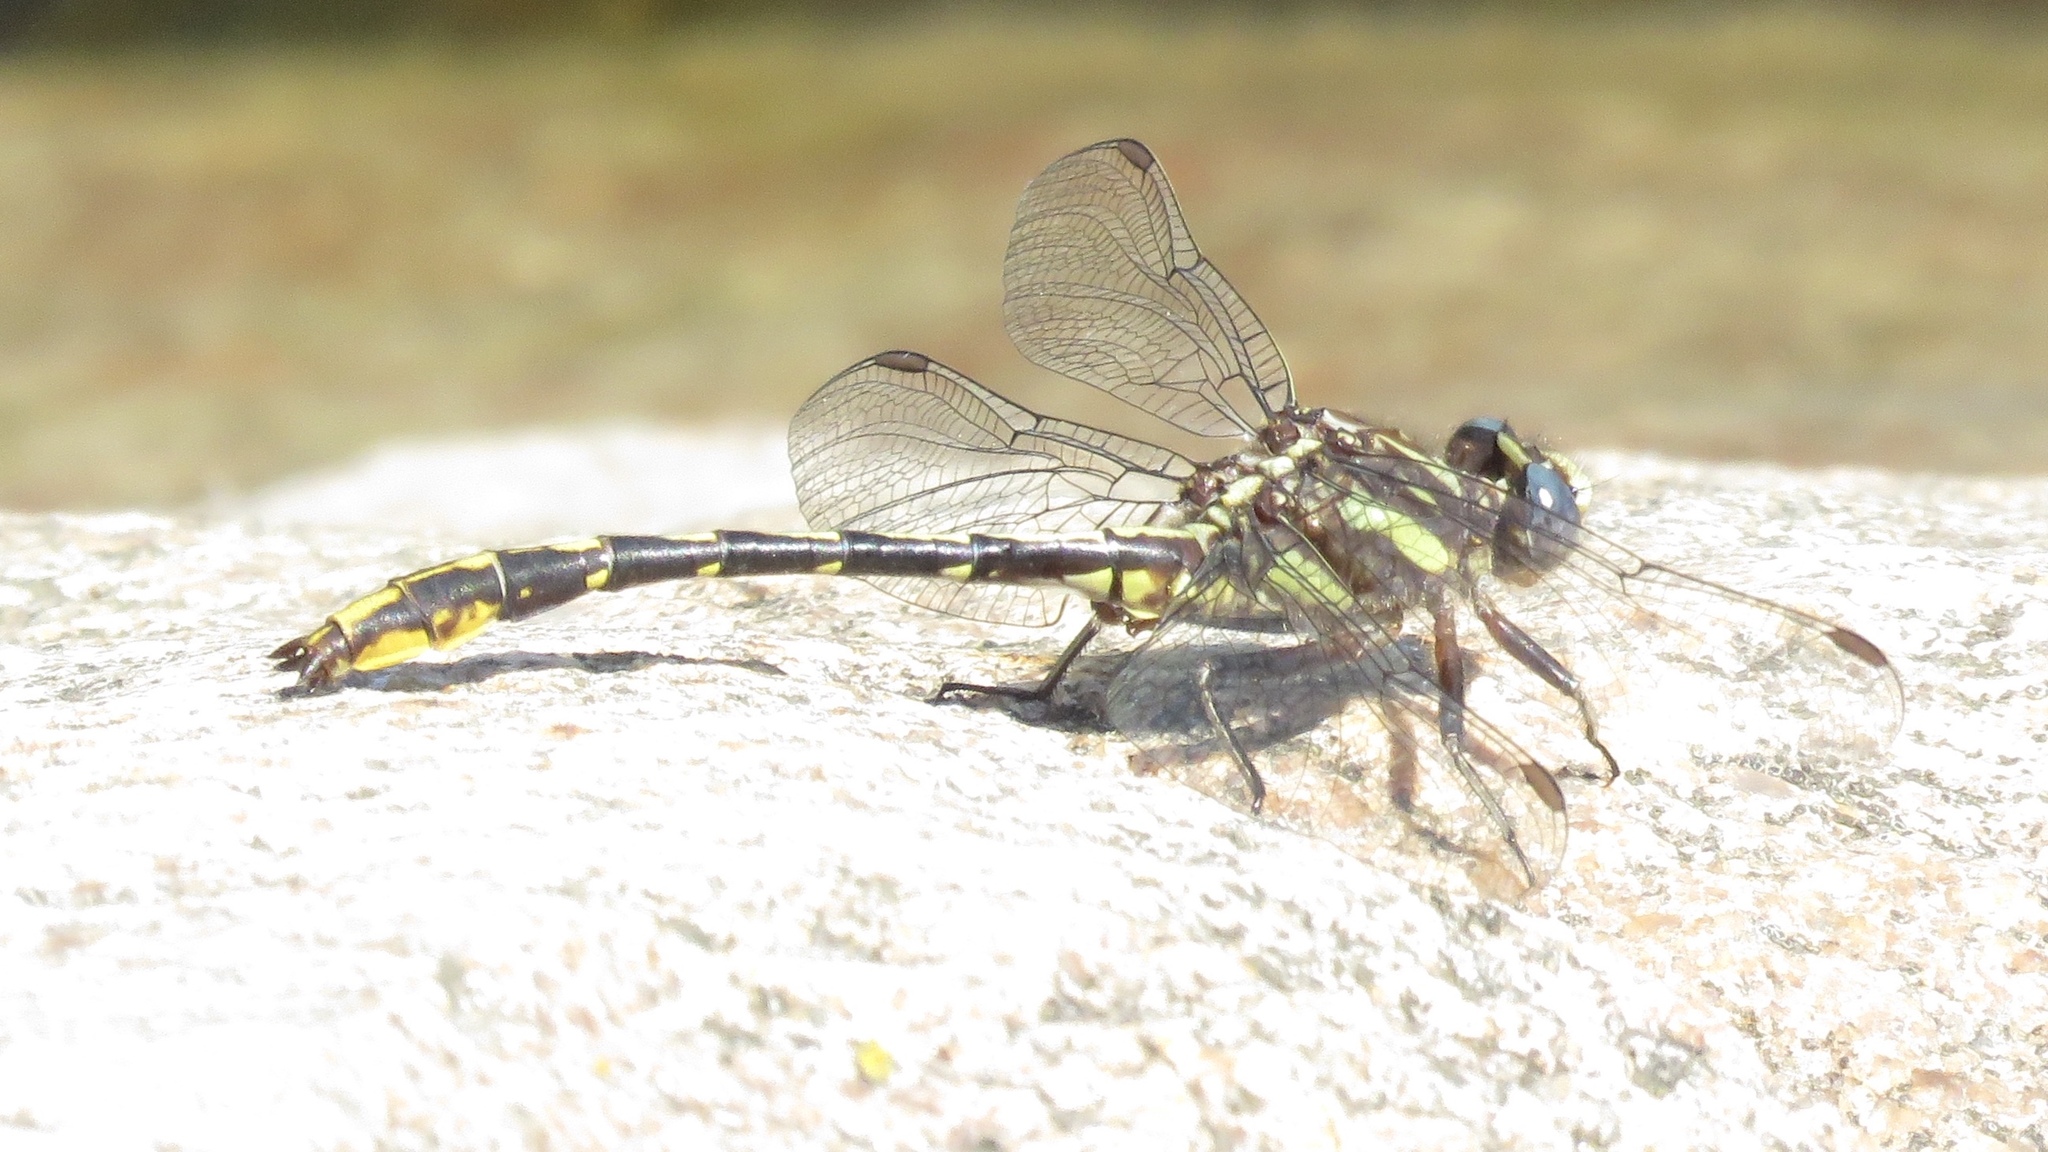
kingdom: Animalia
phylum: Arthropoda
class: Insecta
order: Odonata
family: Gomphidae
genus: Phanogomphus
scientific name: Phanogomphus exilis
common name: Lancet clubtail
